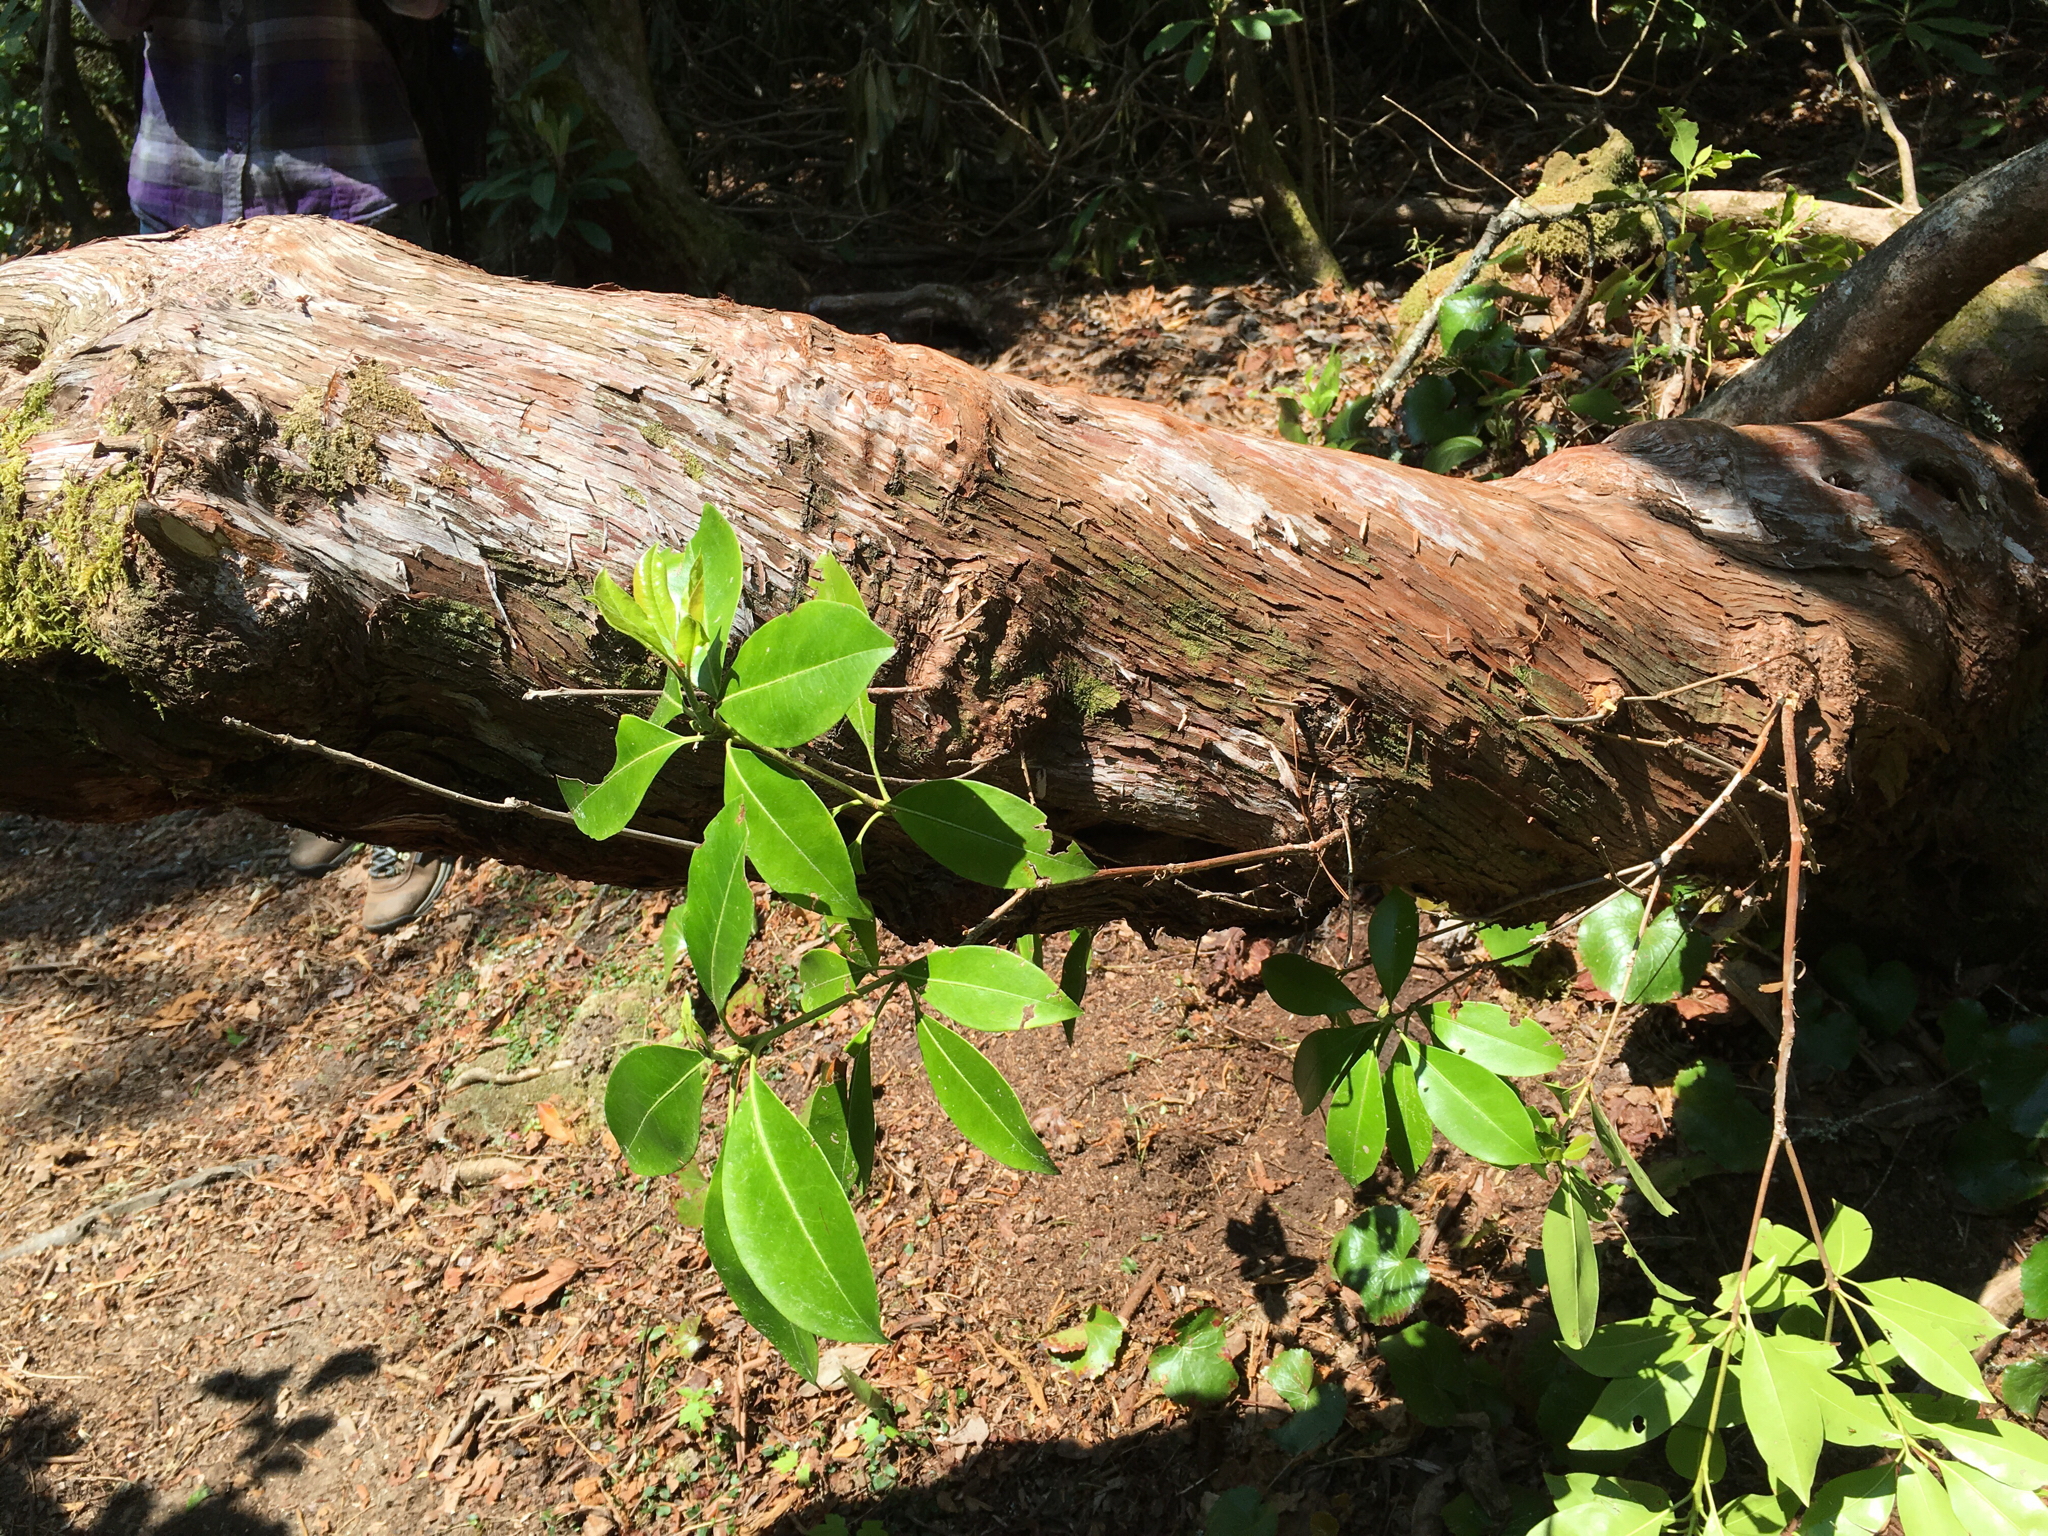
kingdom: Plantae
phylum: Tracheophyta
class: Magnoliopsida
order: Ericales
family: Ericaceae
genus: Kalmia
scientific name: Kalmia latifolia
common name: Mountain-laurel
